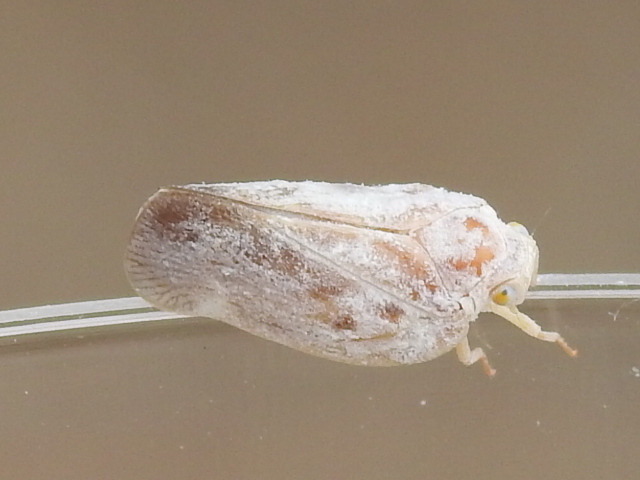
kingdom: Animalia
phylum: Arthropoda
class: Insecta
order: Hemiptera
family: Flatidae
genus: Metcalfa
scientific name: Metcalfa pruinosa
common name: Citrus flatid planthopper
